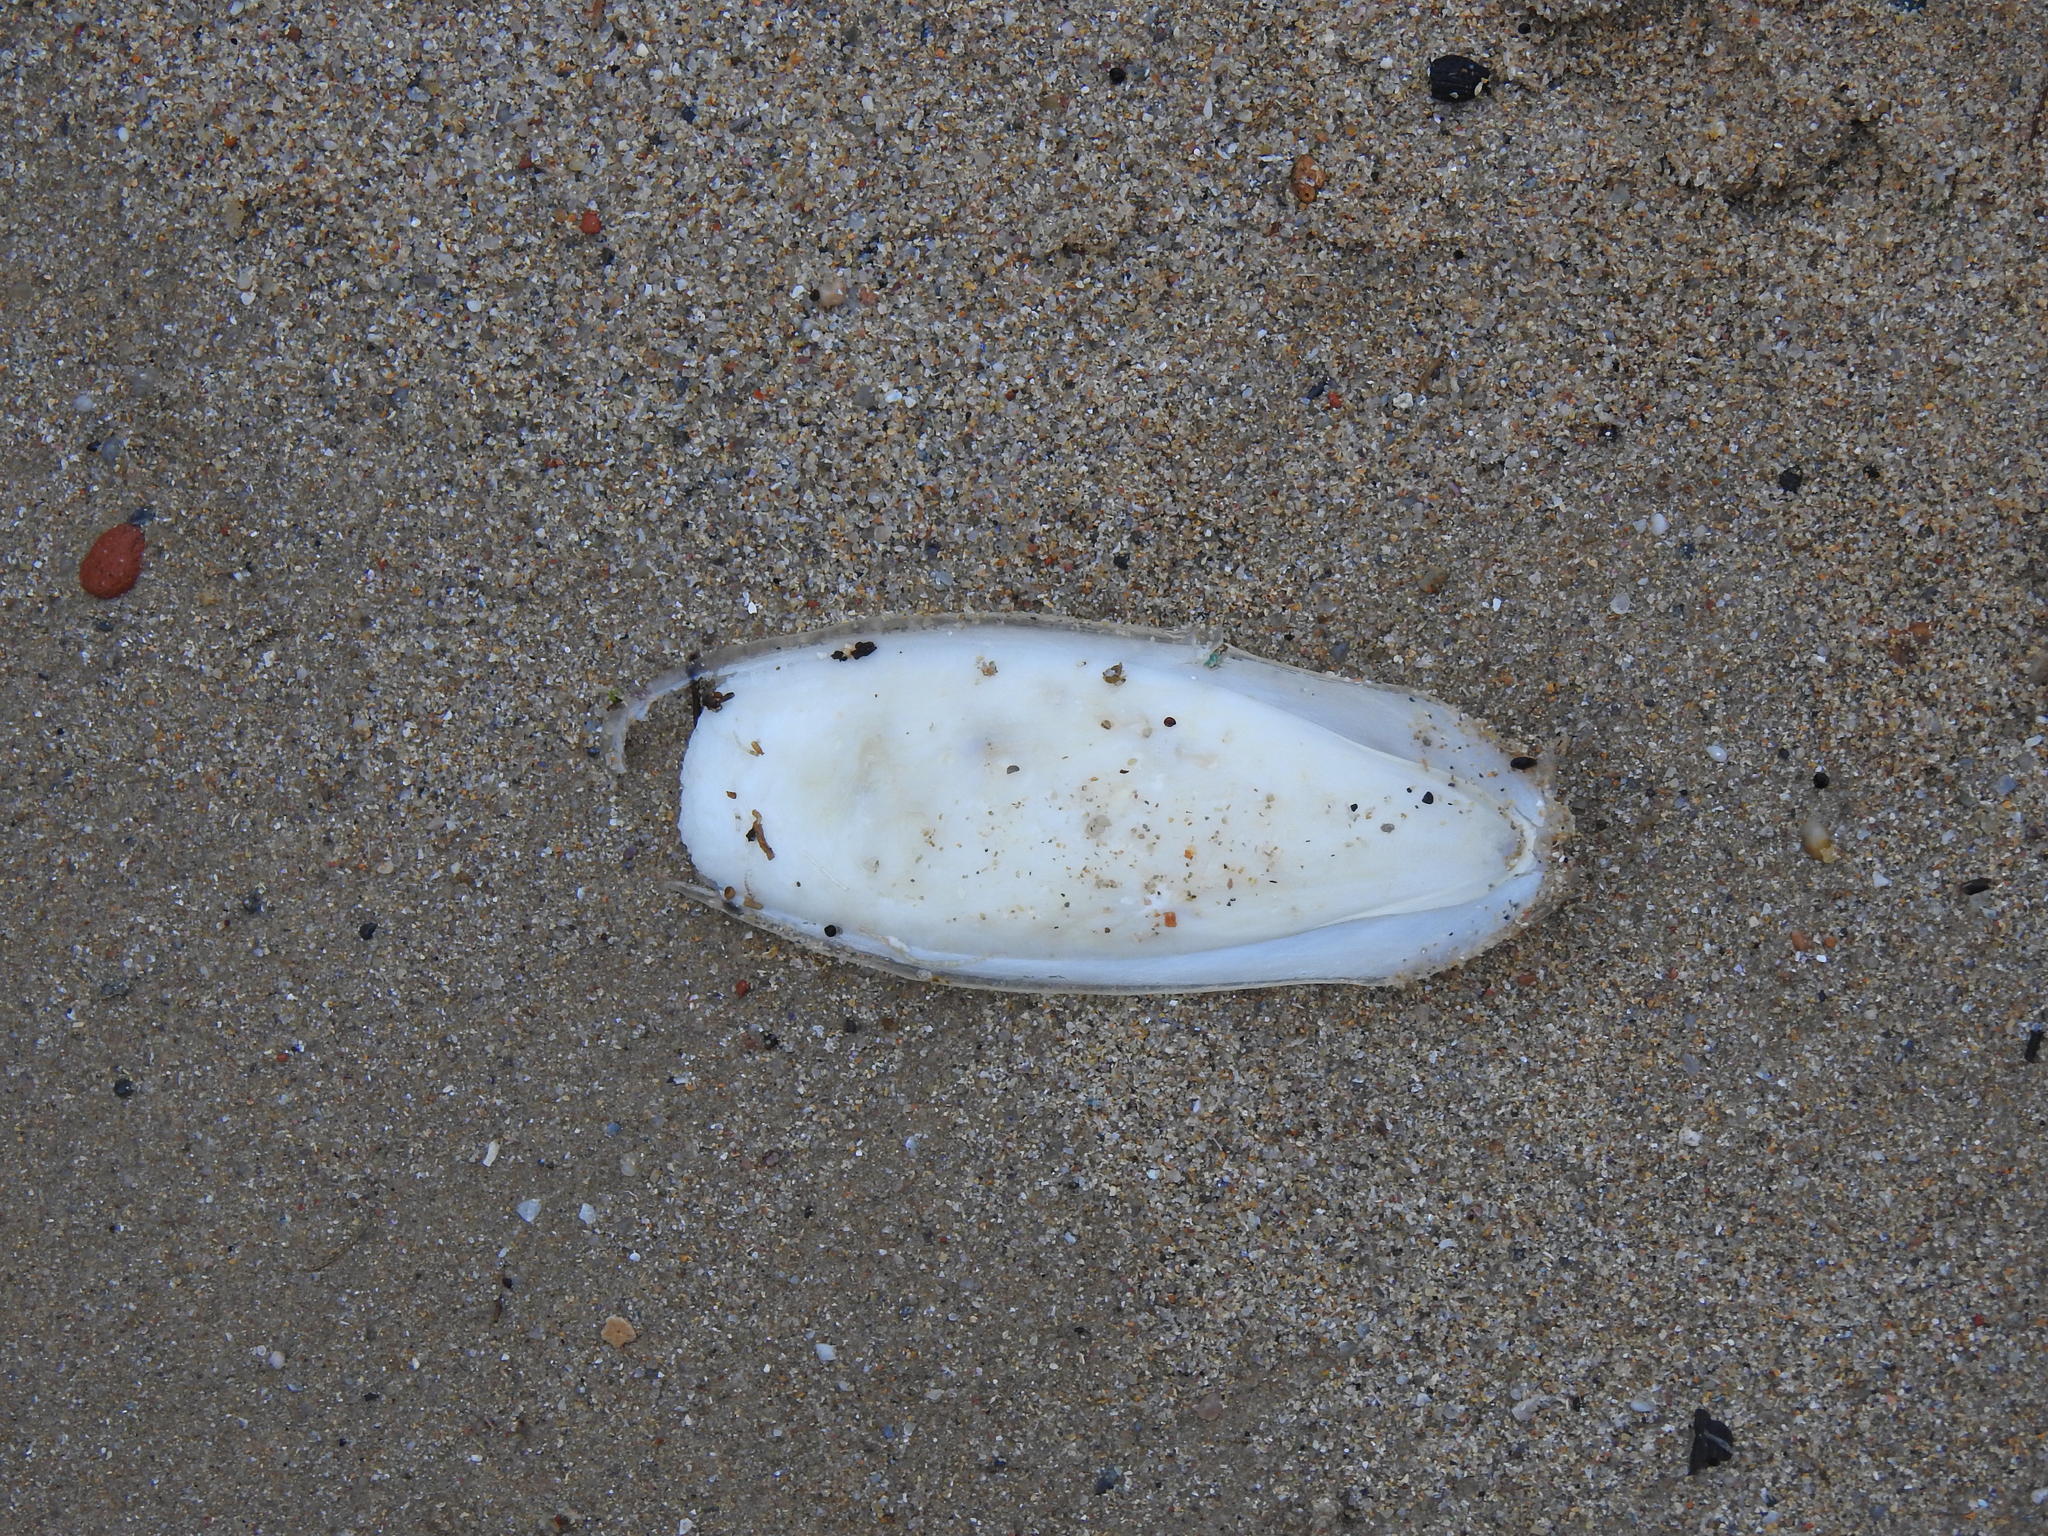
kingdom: Animalia
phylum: Mollusca
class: Cephalopoda
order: Sepiida
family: Sepiidae
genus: Sepia
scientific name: Sepia officinalis
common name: Common cuttlefish
